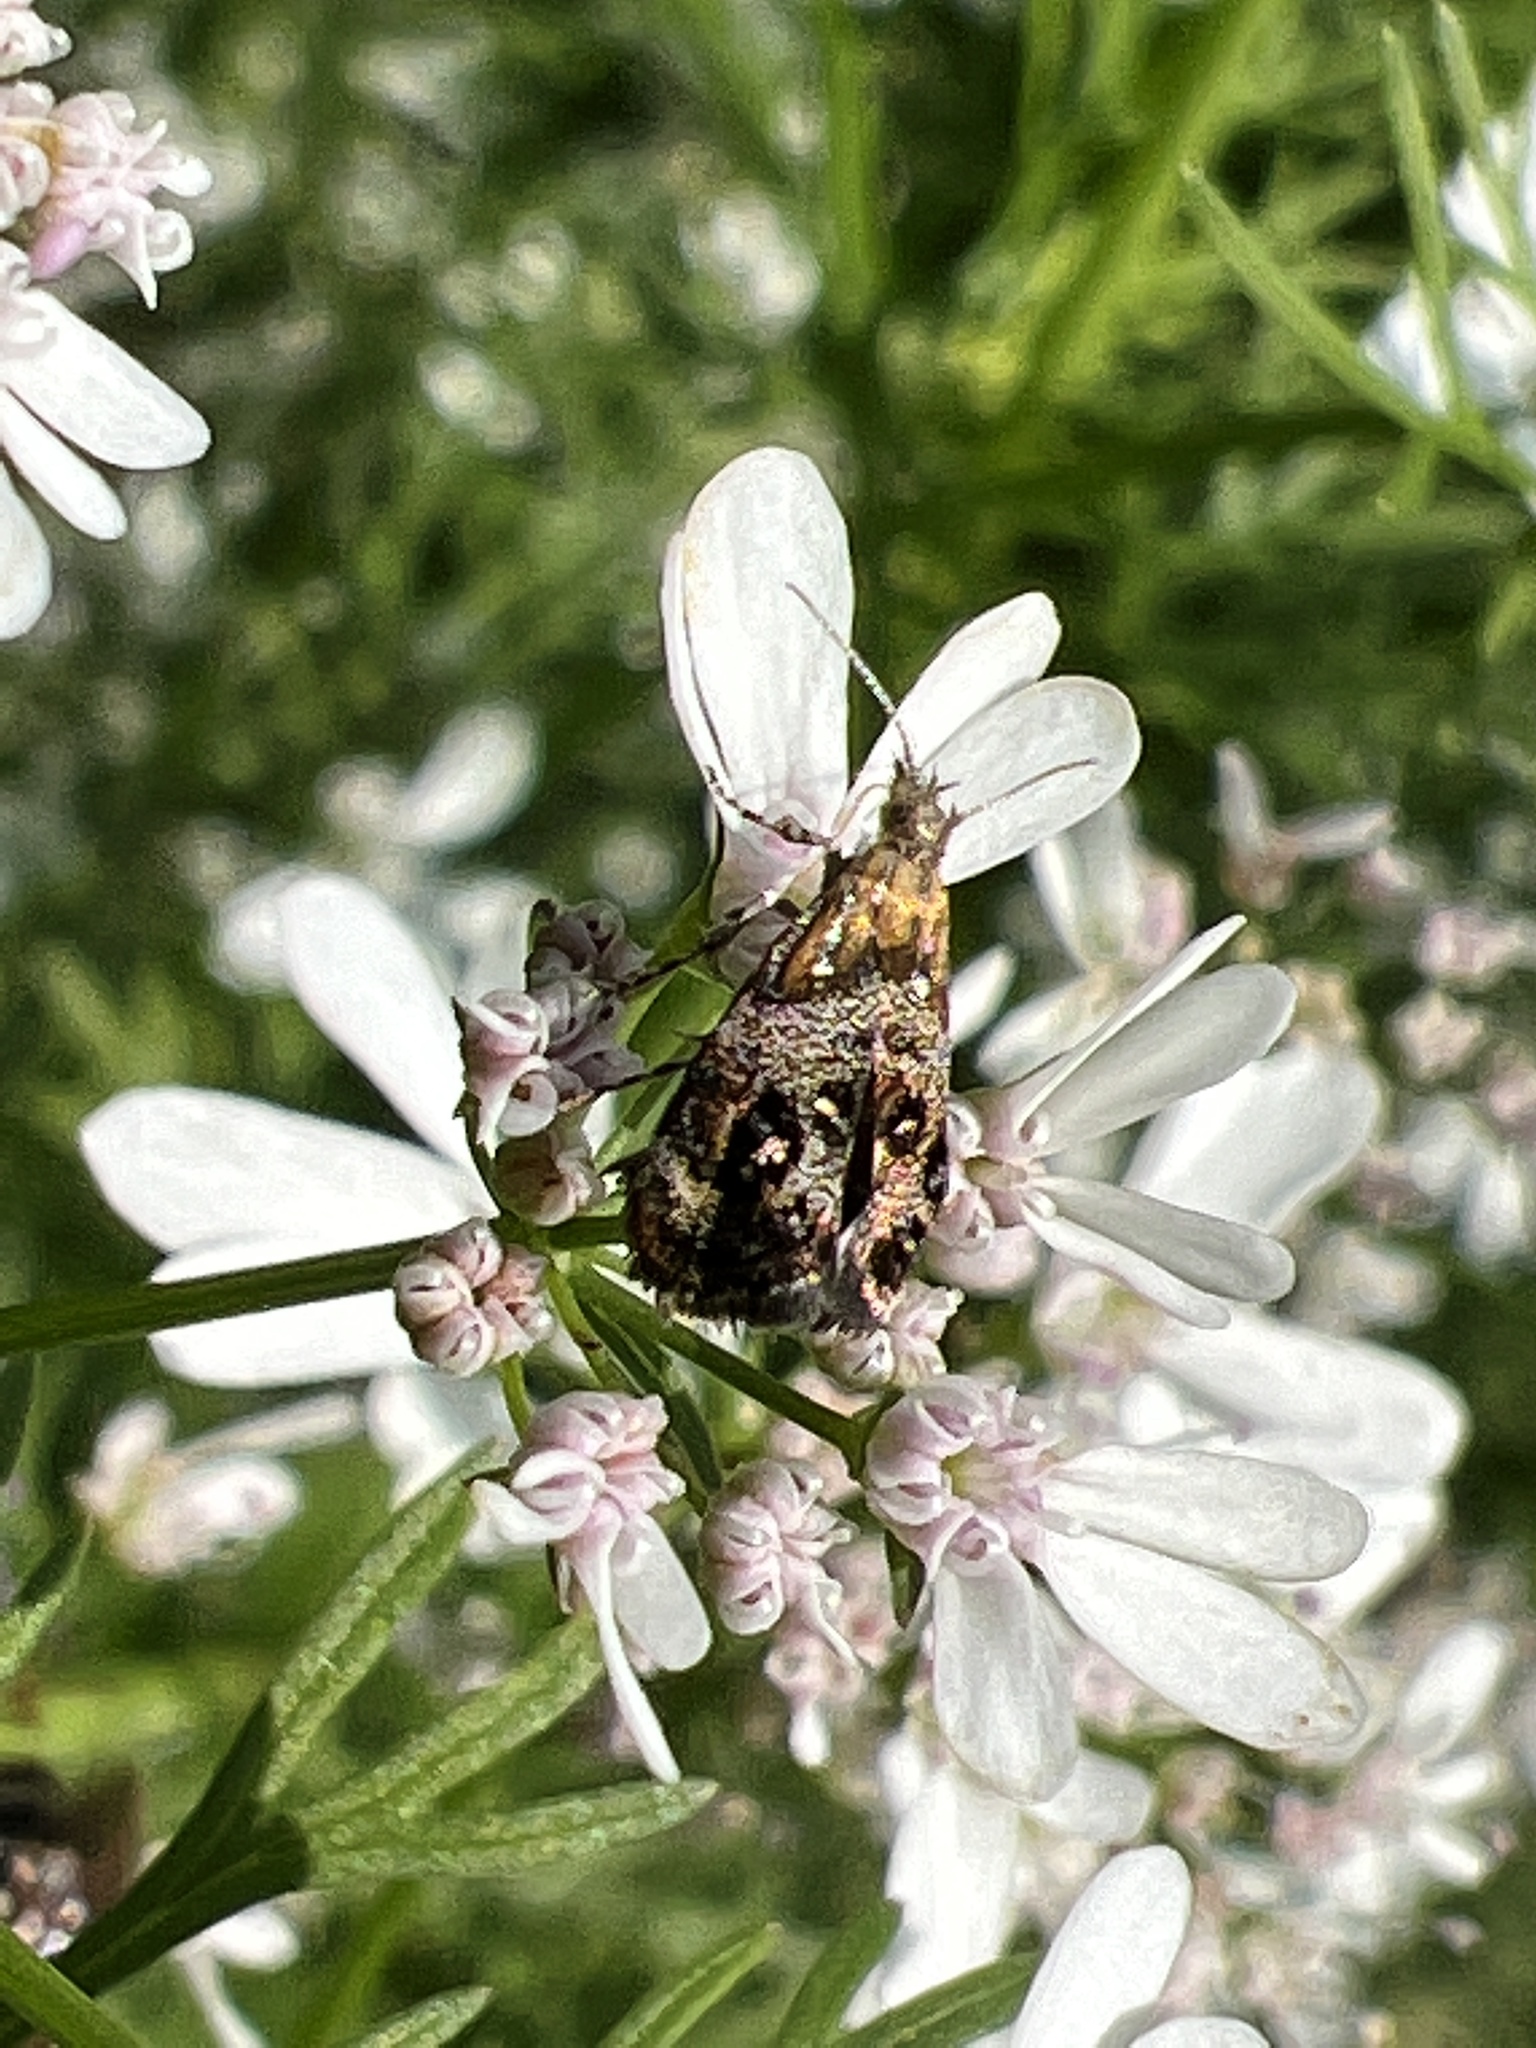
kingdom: Animalia
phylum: Arthropoda
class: Insecta
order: Lepidoptera
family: Choreutidae
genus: Tebenna
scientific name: Tebenna gnaphaliella
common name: Everlasting tebenna moth
